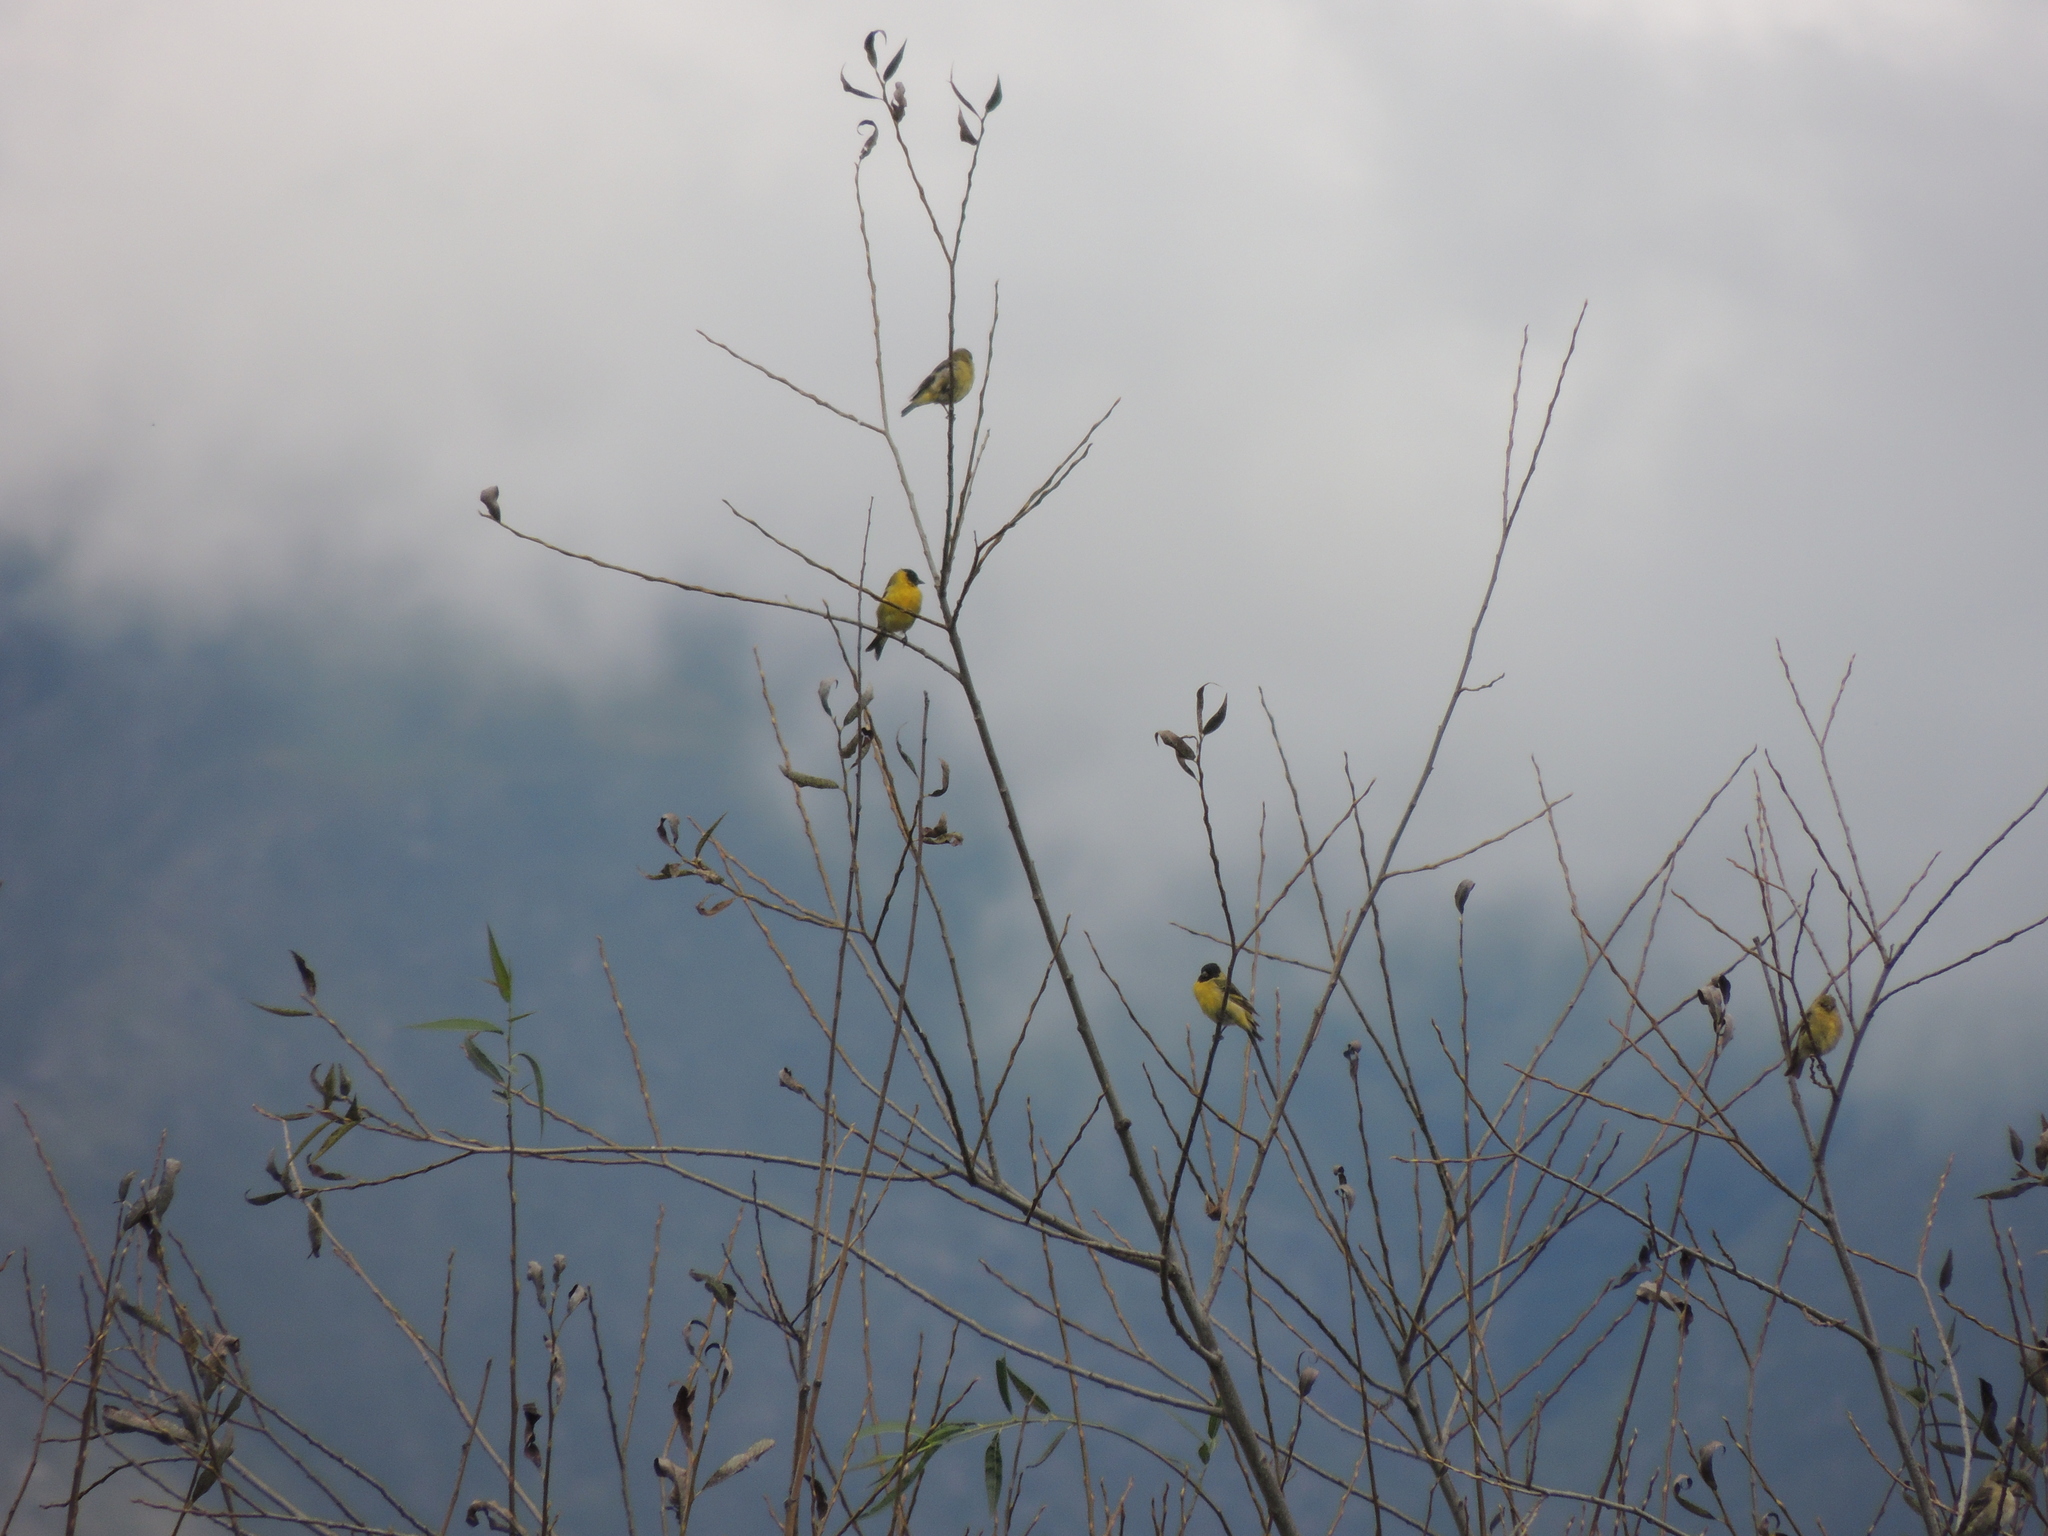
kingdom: Animalia
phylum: Chordata
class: Aves
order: Passeriformes
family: Fringillidae
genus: Spinus
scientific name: Spinus magellanicus
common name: Hooded siskin
